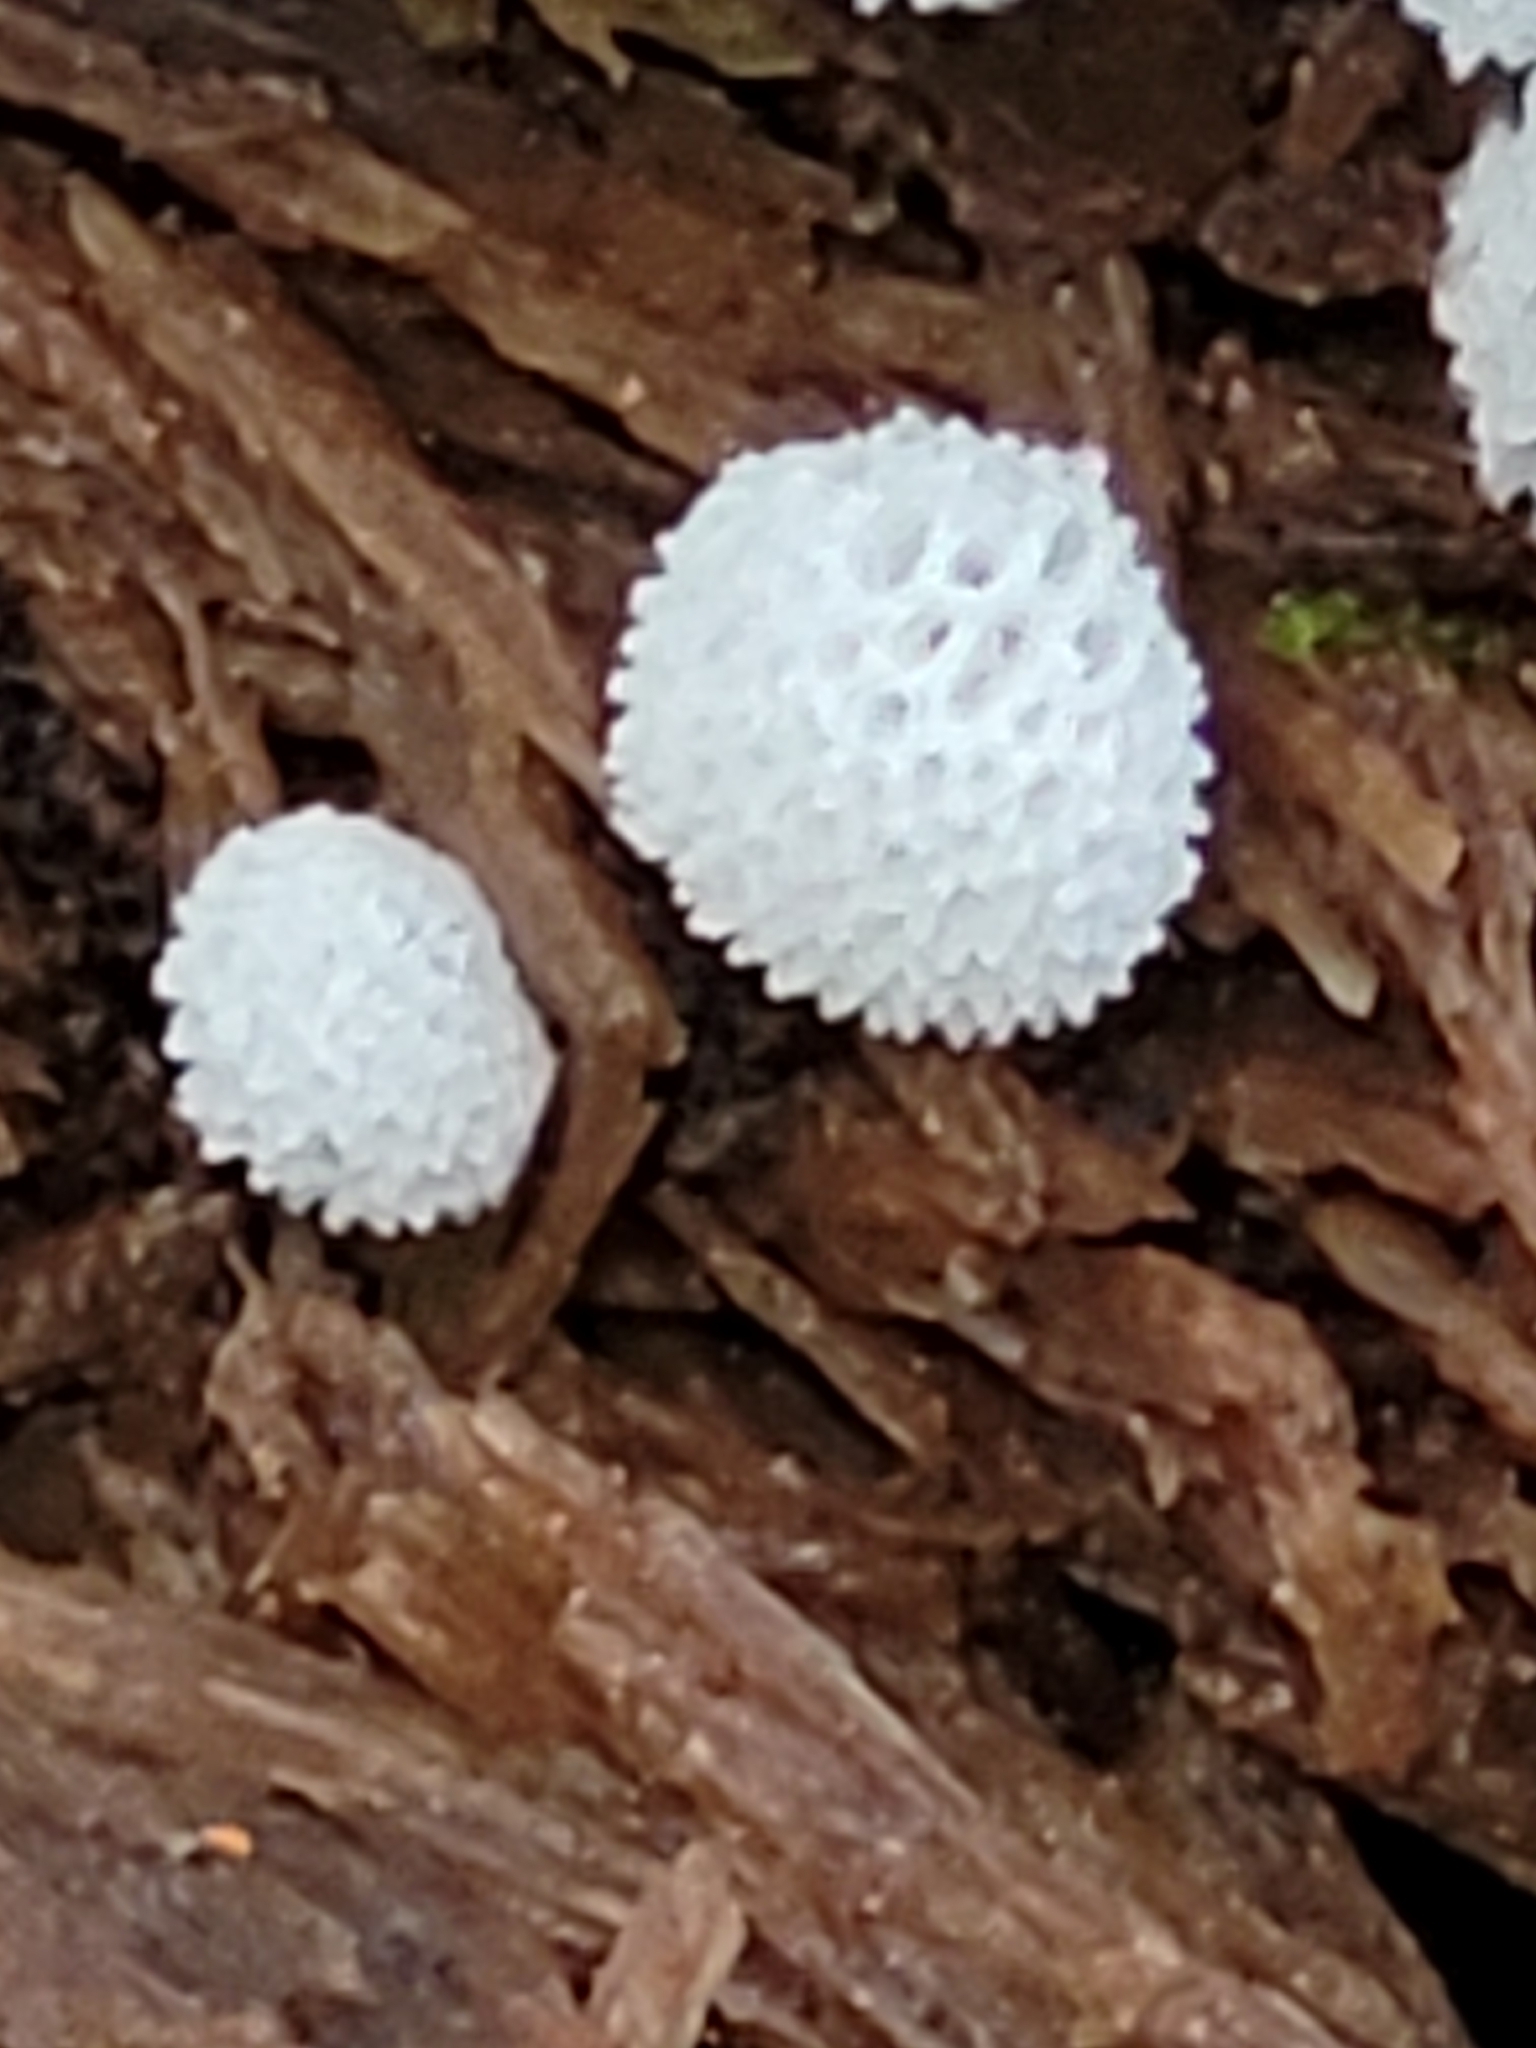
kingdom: Protozoa
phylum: Mycetozoa
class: Protosteliomycetes
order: Ceratiomyxales
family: Ceratiomyxaceae
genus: Ceratiomyxa
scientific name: Ceratiomyxa fruticulosa
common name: Honeycomb coral slime mold
